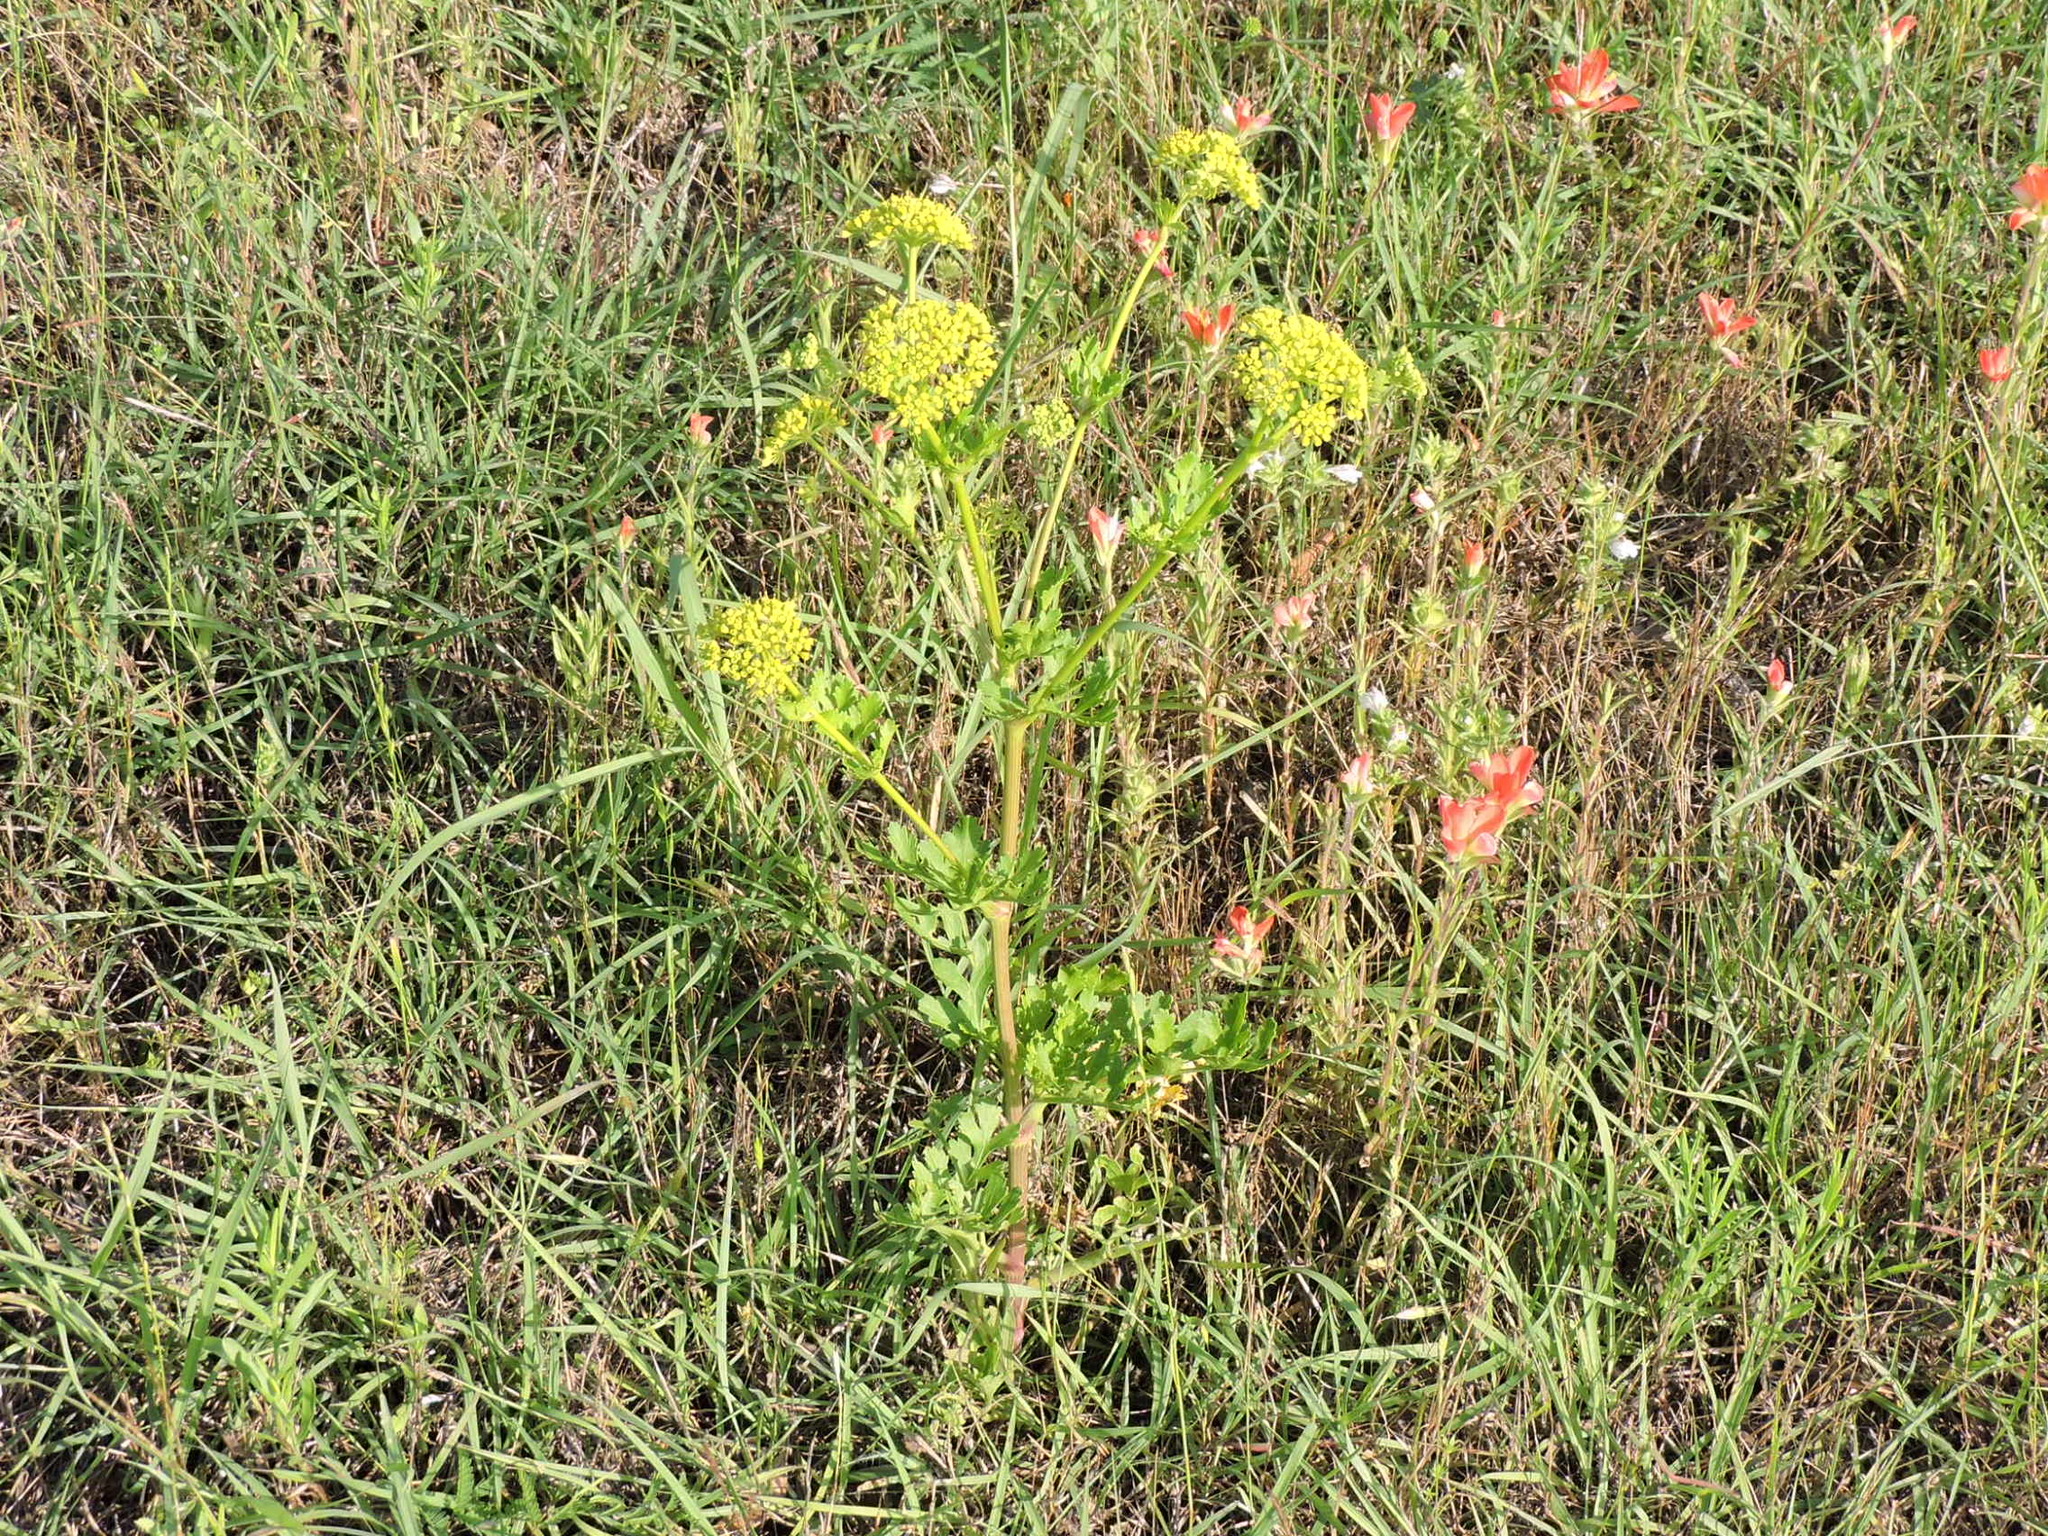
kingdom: Plantae
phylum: Tracheophyta
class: Magnoliopsida
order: Apiales
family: Apiaceae
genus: Polytaenia
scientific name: Polytaenia texana
